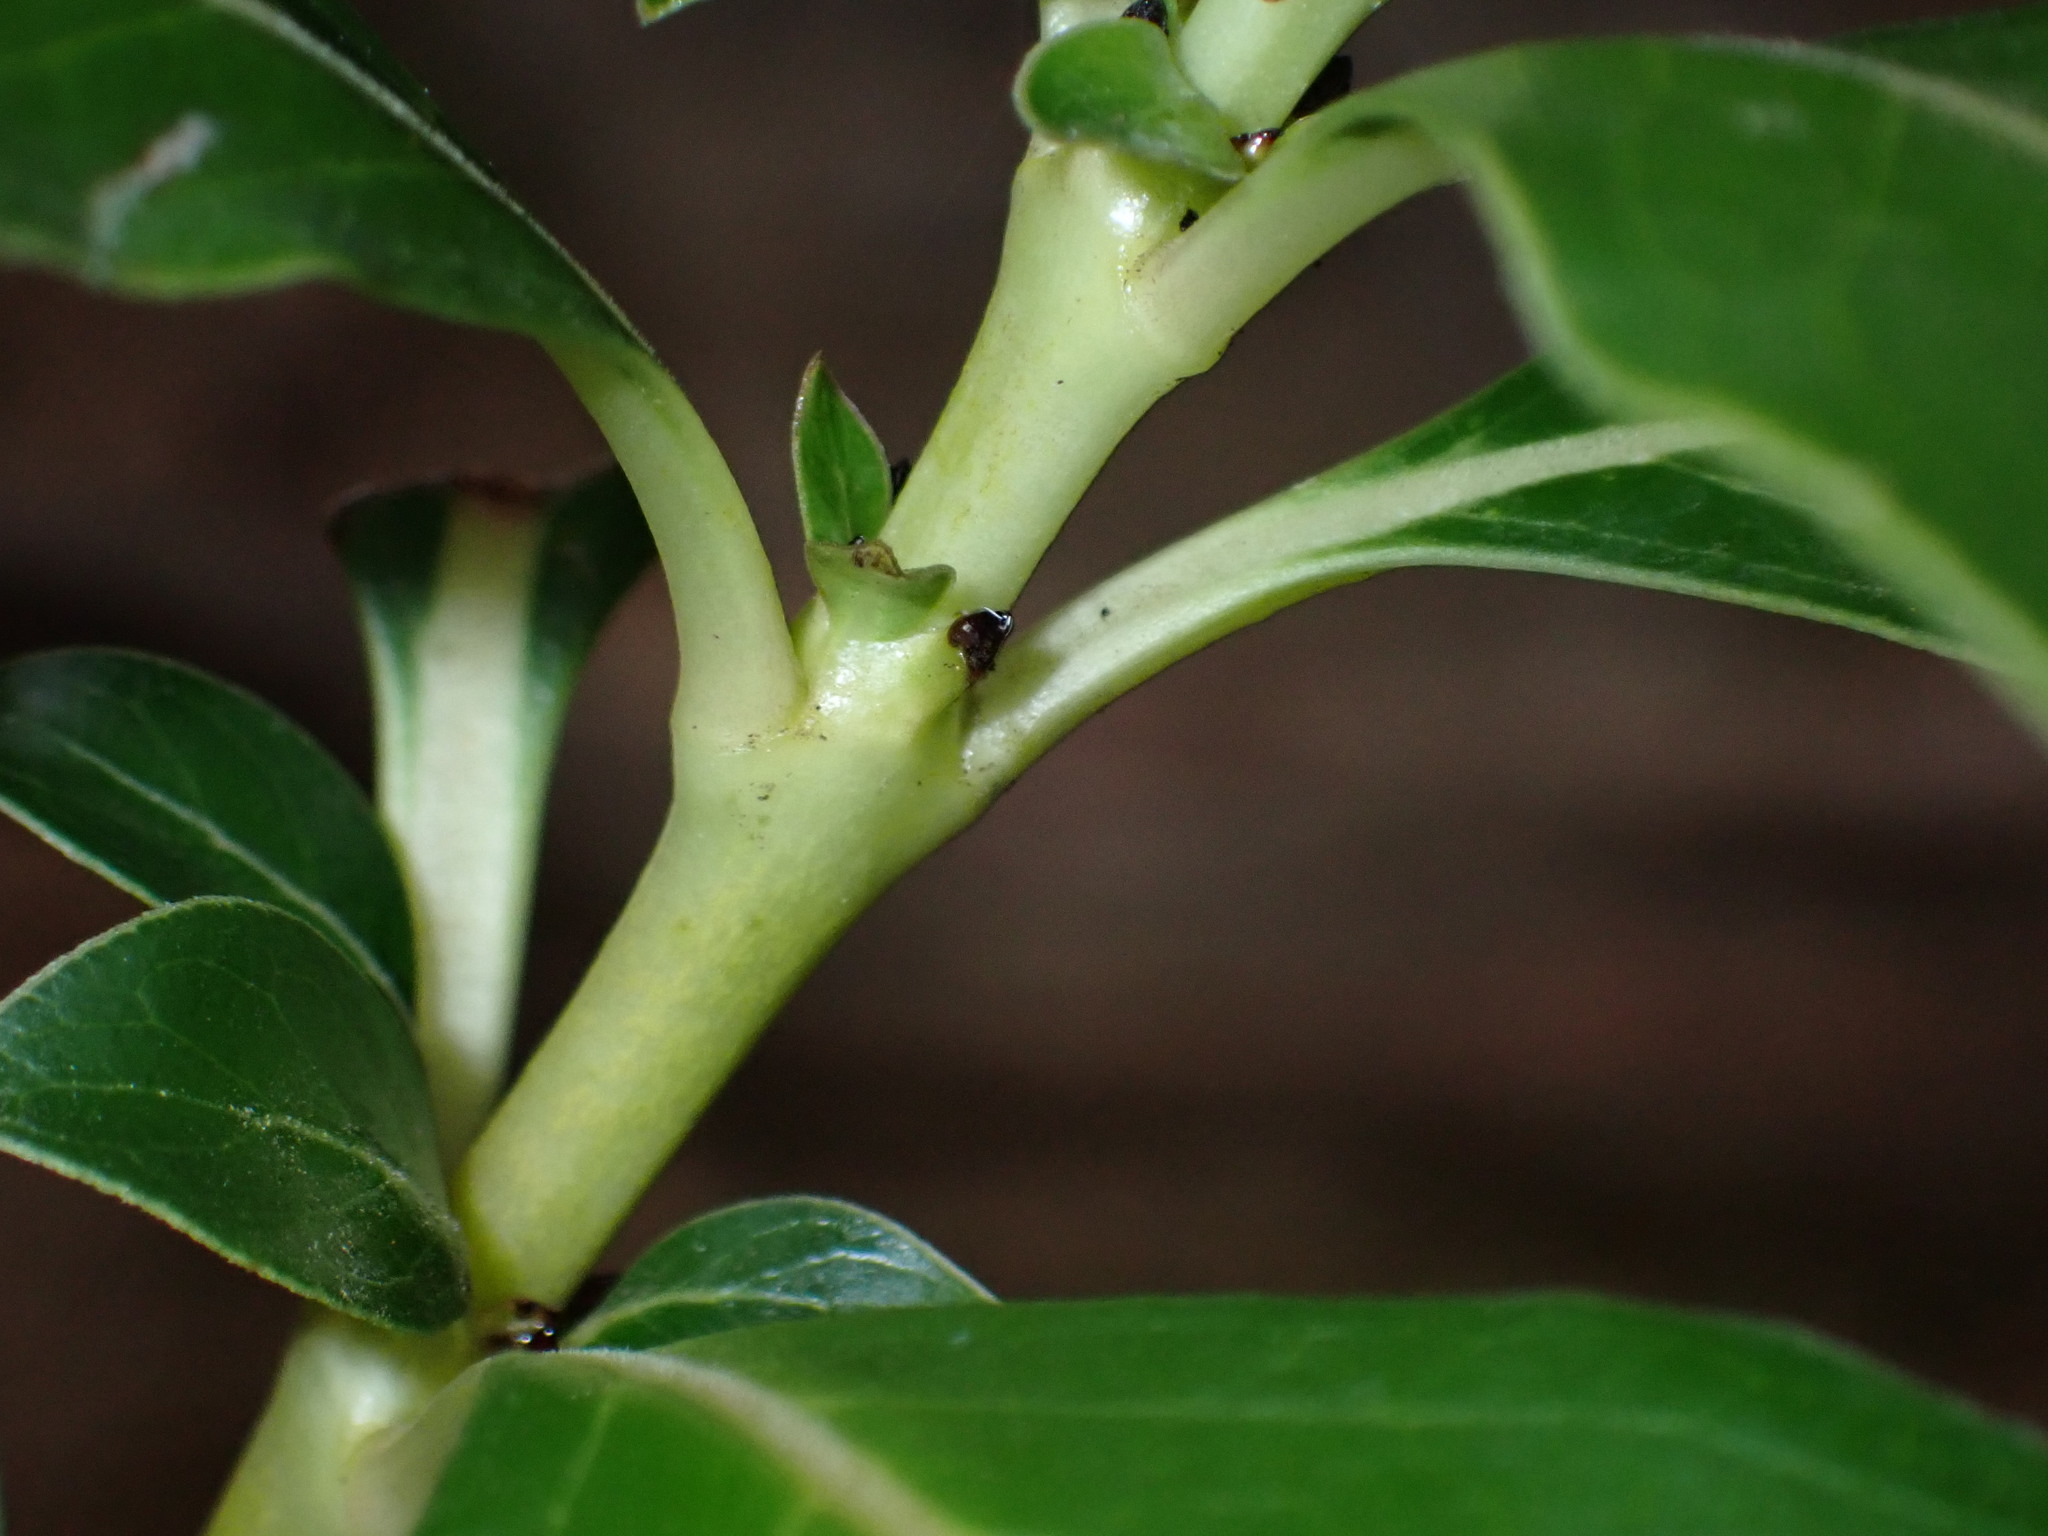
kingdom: Plantae
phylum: Tracheophyta
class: Magnoliopsida
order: Gentianales
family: Rubiaceae
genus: Coprosma
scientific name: Coprosma robusta
